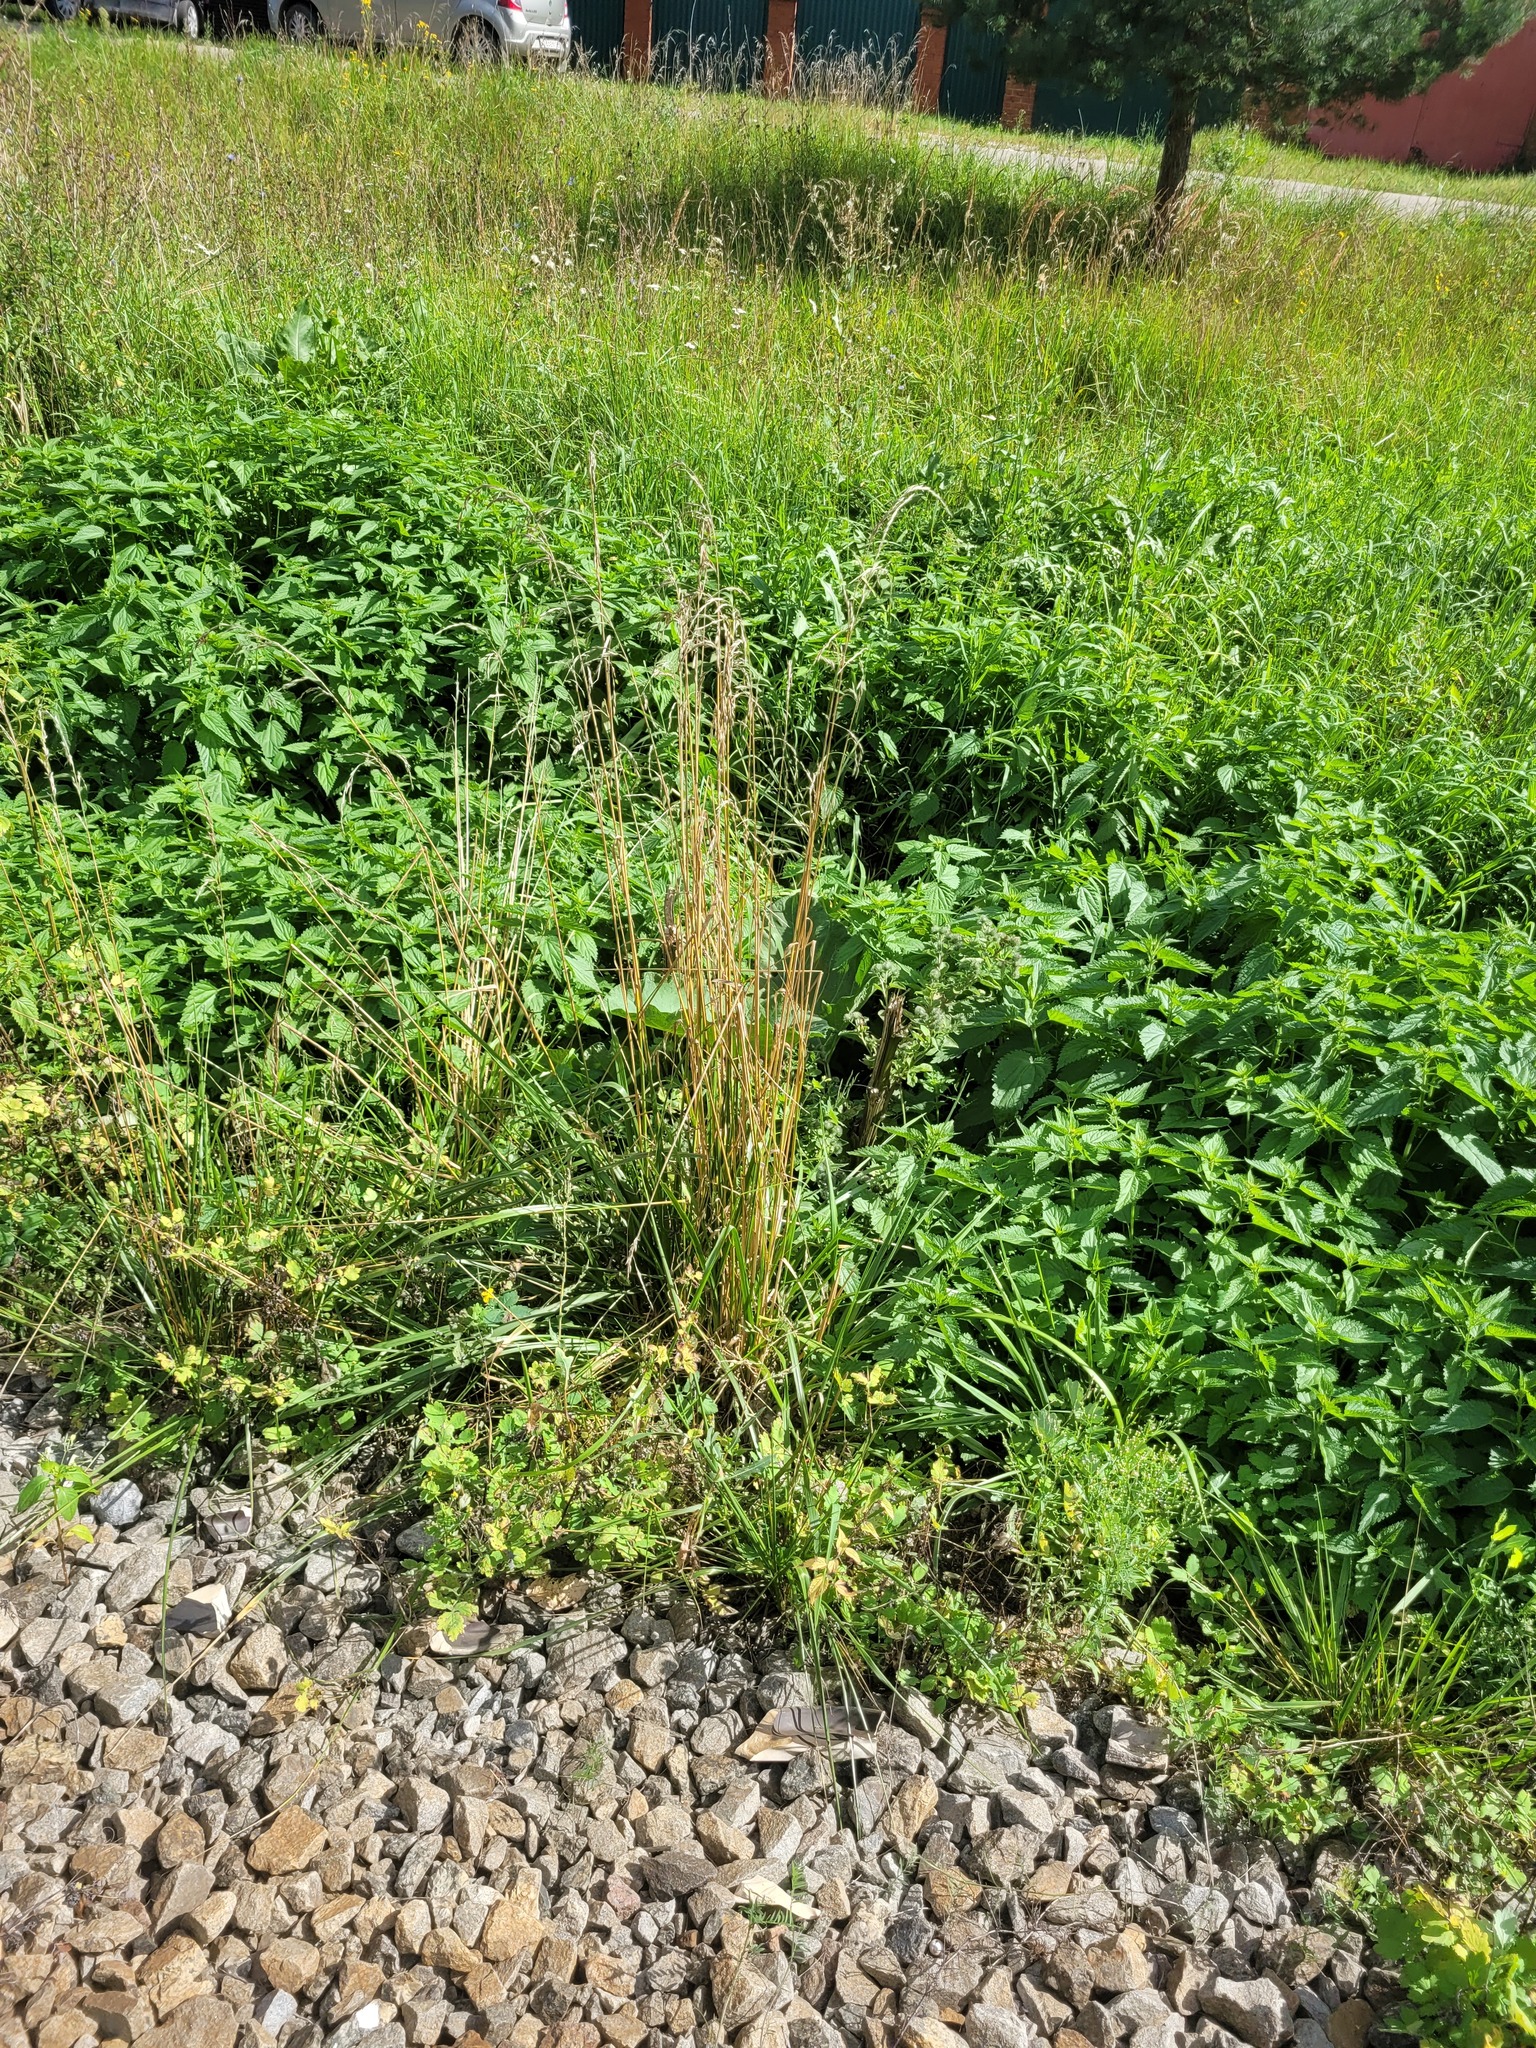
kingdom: Plantae
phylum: Tracheophyta
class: Liliopsida
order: Poales
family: Poaceae
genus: Lolium
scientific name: Lolium arundinaceum
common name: Reed fescue
